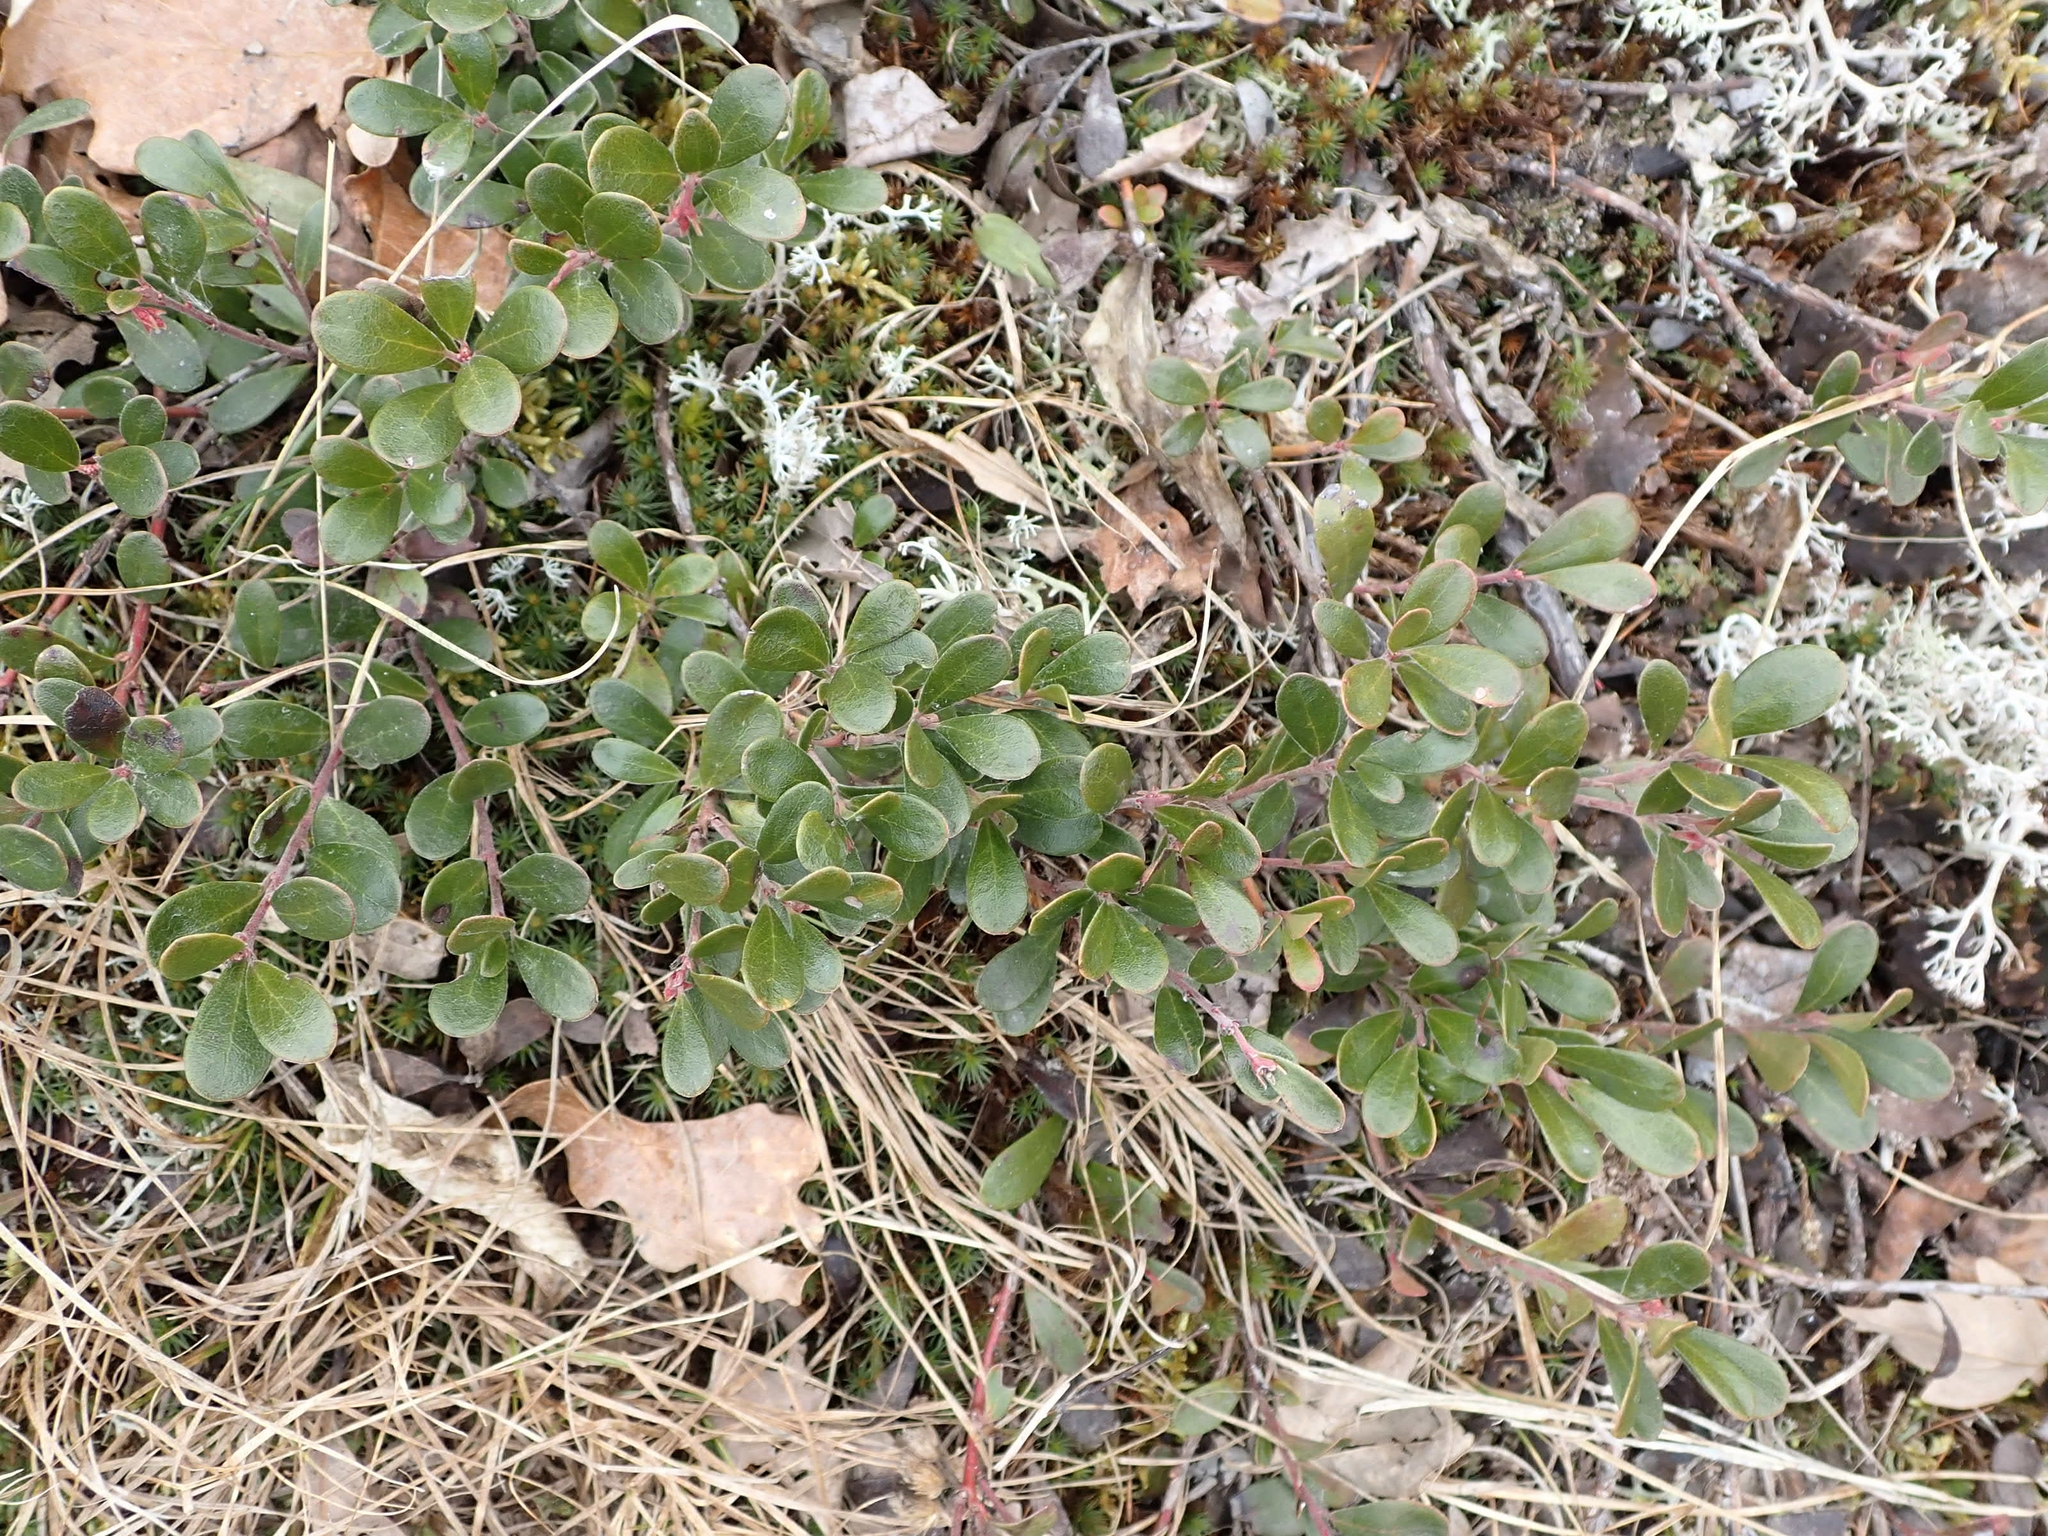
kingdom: Plantae
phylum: Tracheophyta
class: Magnoliopsida
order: Ericales
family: Ericaceae
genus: Arctostaphylos
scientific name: Arctostaphylos uva-ursi
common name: Bearberry
